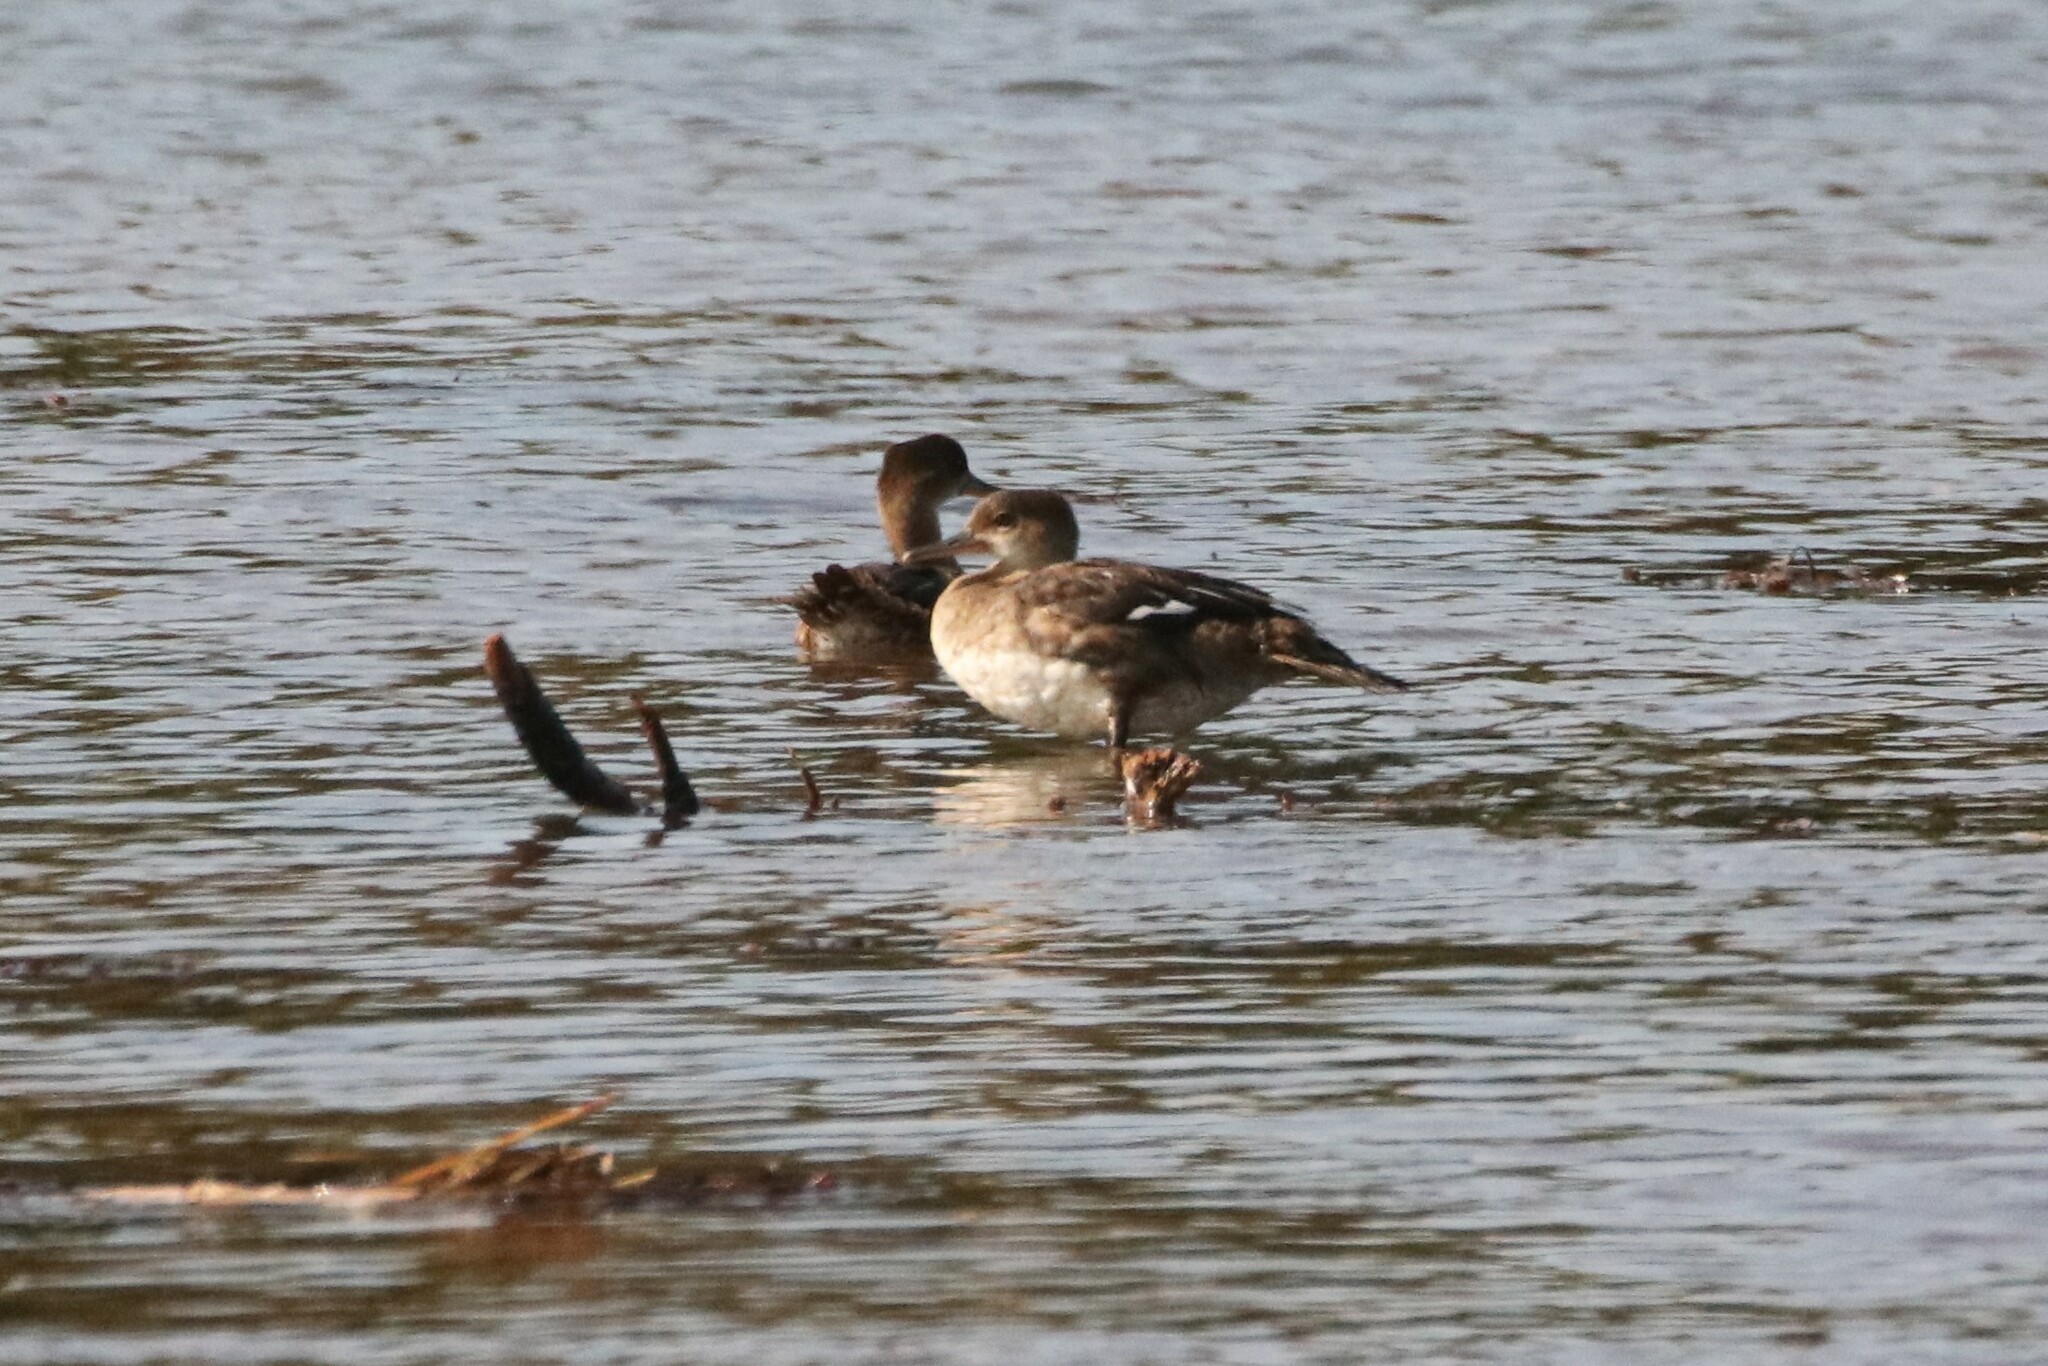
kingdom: Animalia
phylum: Chordata
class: Aves
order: Anseriformes
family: Anatidae
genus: Lophodytes
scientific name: Lophodytes cucullatus
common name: Hooded merganser
